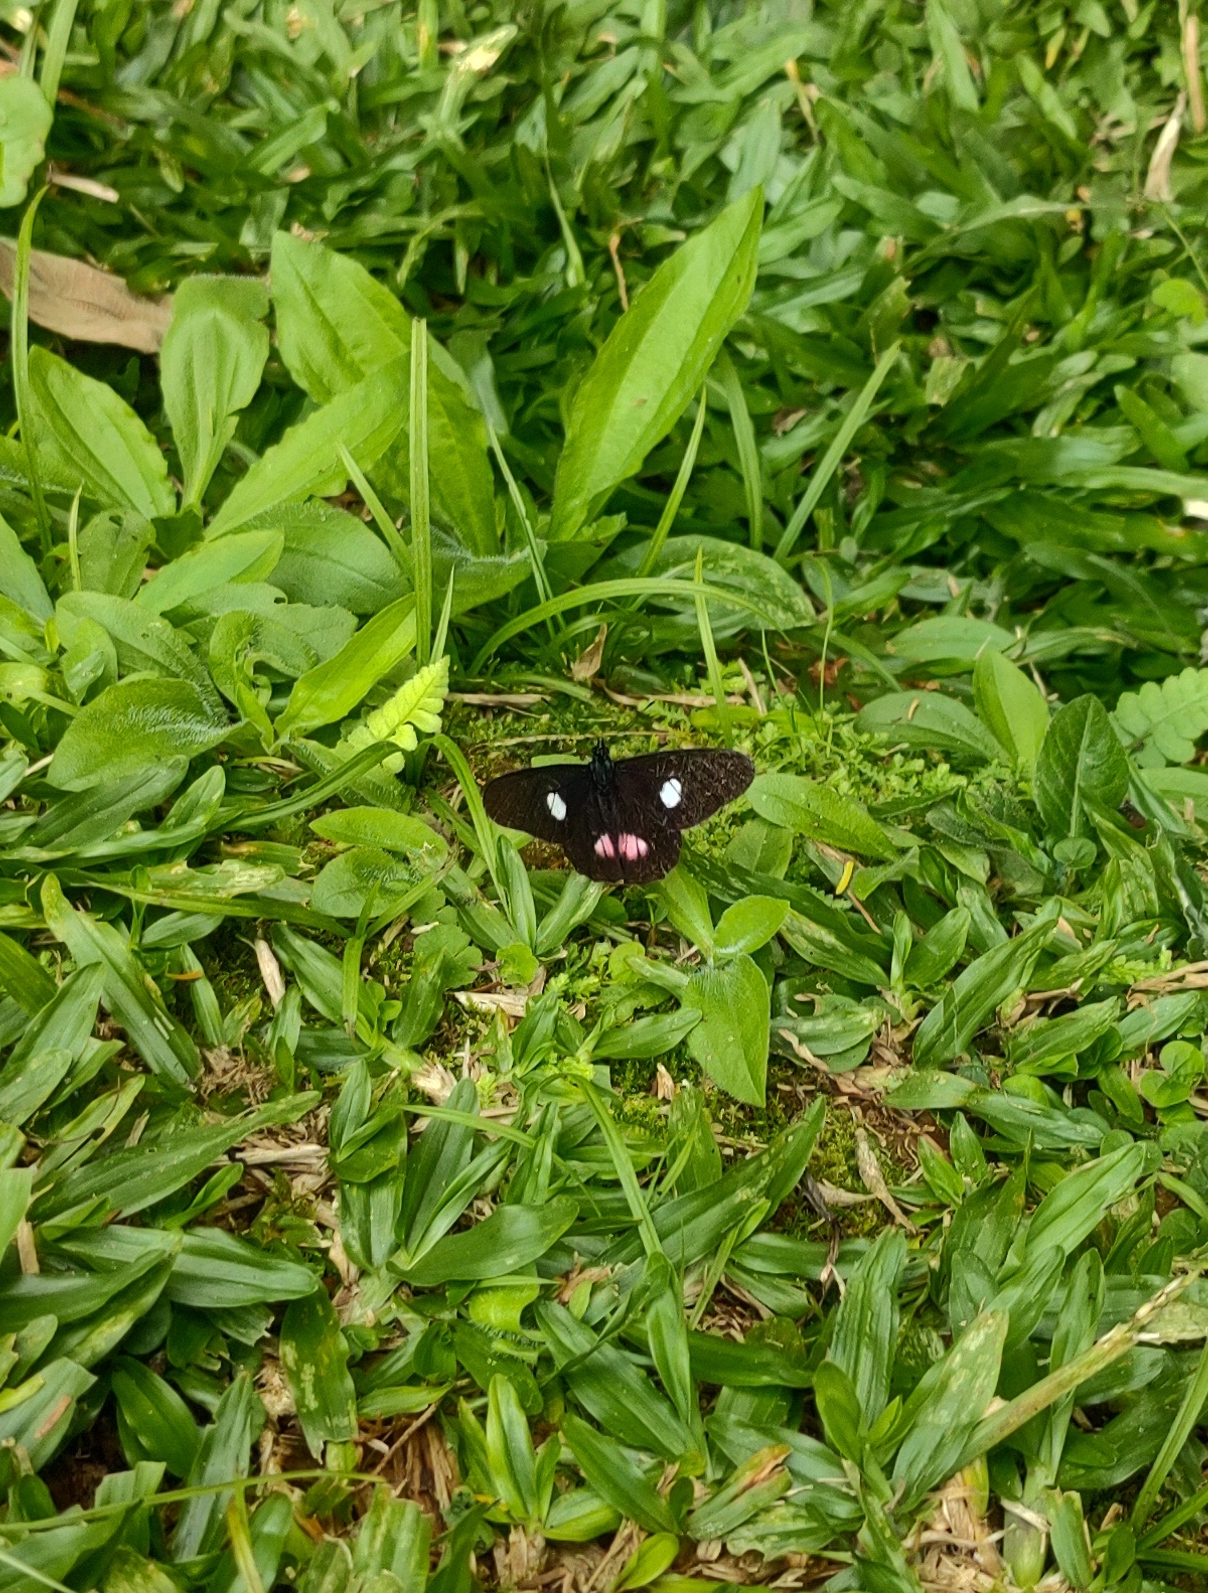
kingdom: Animalia
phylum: Arthropoda
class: Insecta
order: Lepidoptera
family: Pieridae
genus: Archonias
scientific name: Archonias brassolis
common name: Cattleheart white
